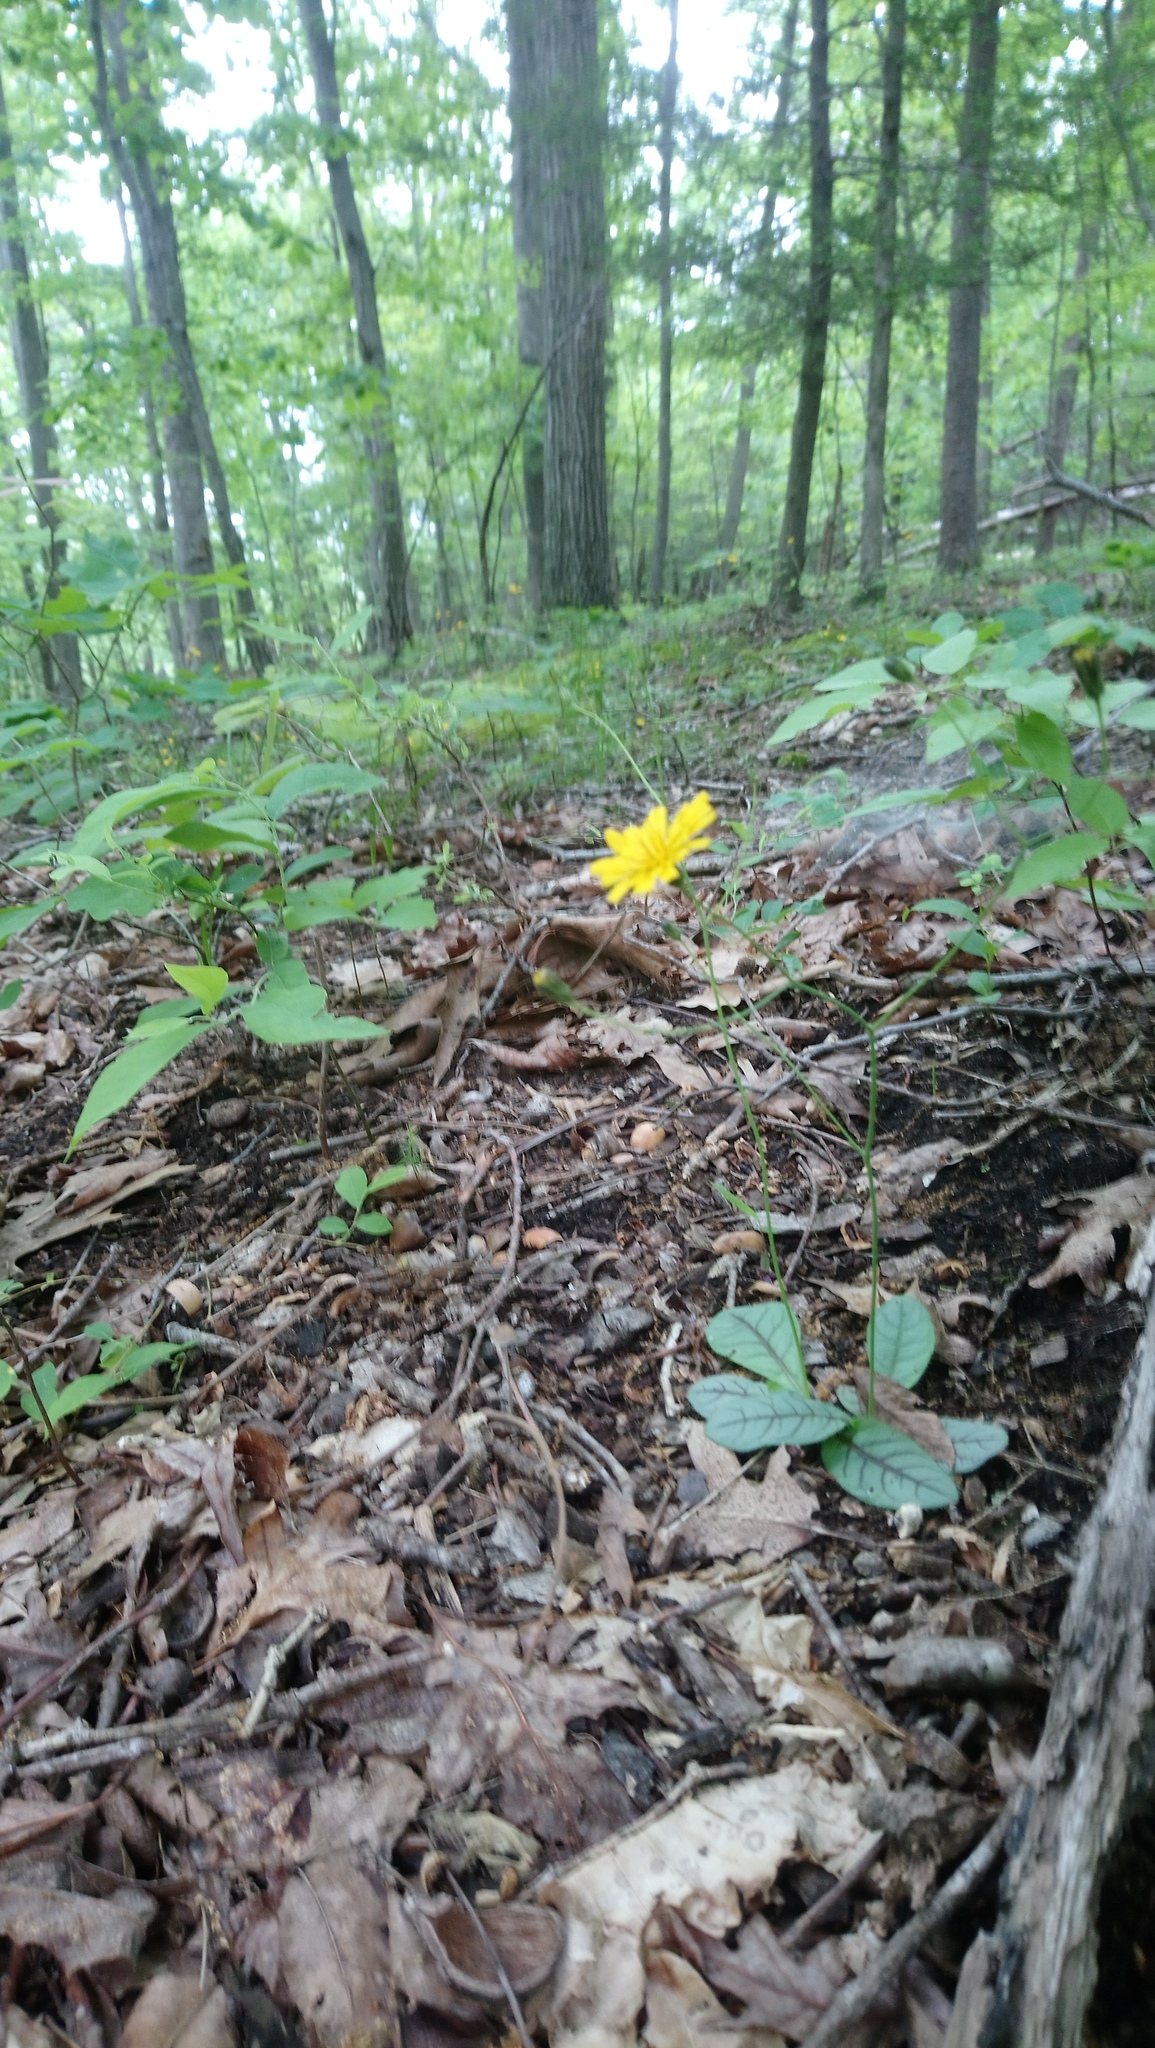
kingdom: Plantae
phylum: Tracheophyta
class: Magnoliopsida
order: Asterales
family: Asteraceae
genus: Hieracium
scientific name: Hieracium venosum
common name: Rattlesnake hawkweed
